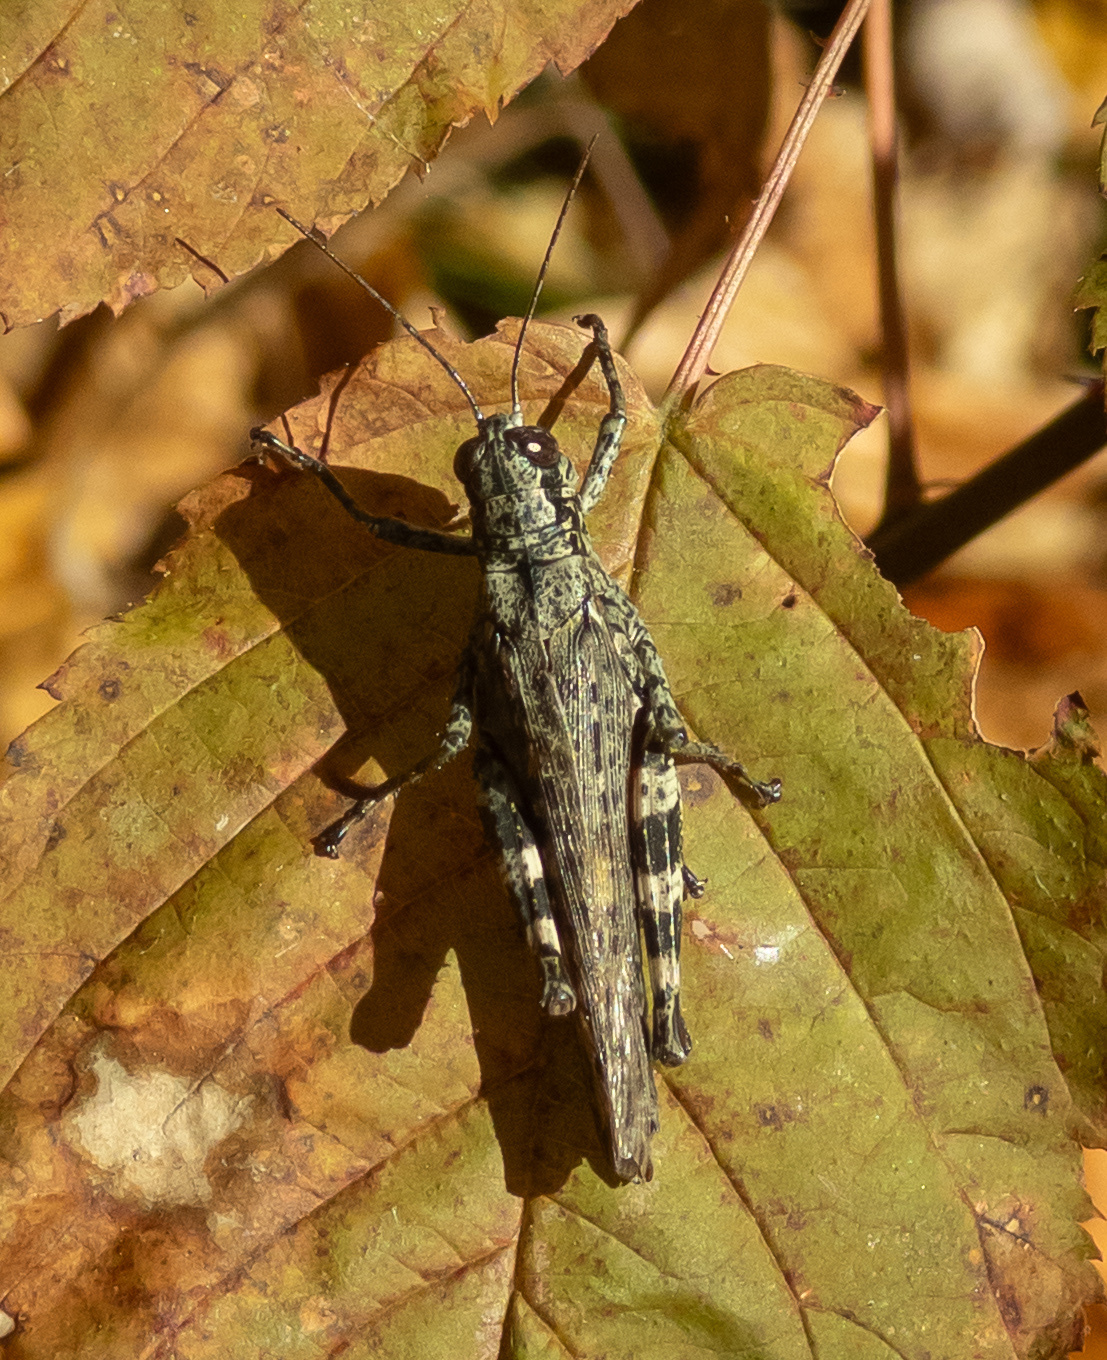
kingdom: Animalia
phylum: Arthropoda
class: Insecta
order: Orthoptera
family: Acrididae
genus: Melanoplus
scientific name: Melanoplus punctulatus
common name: Pine-tree spur-throat grasshopper
